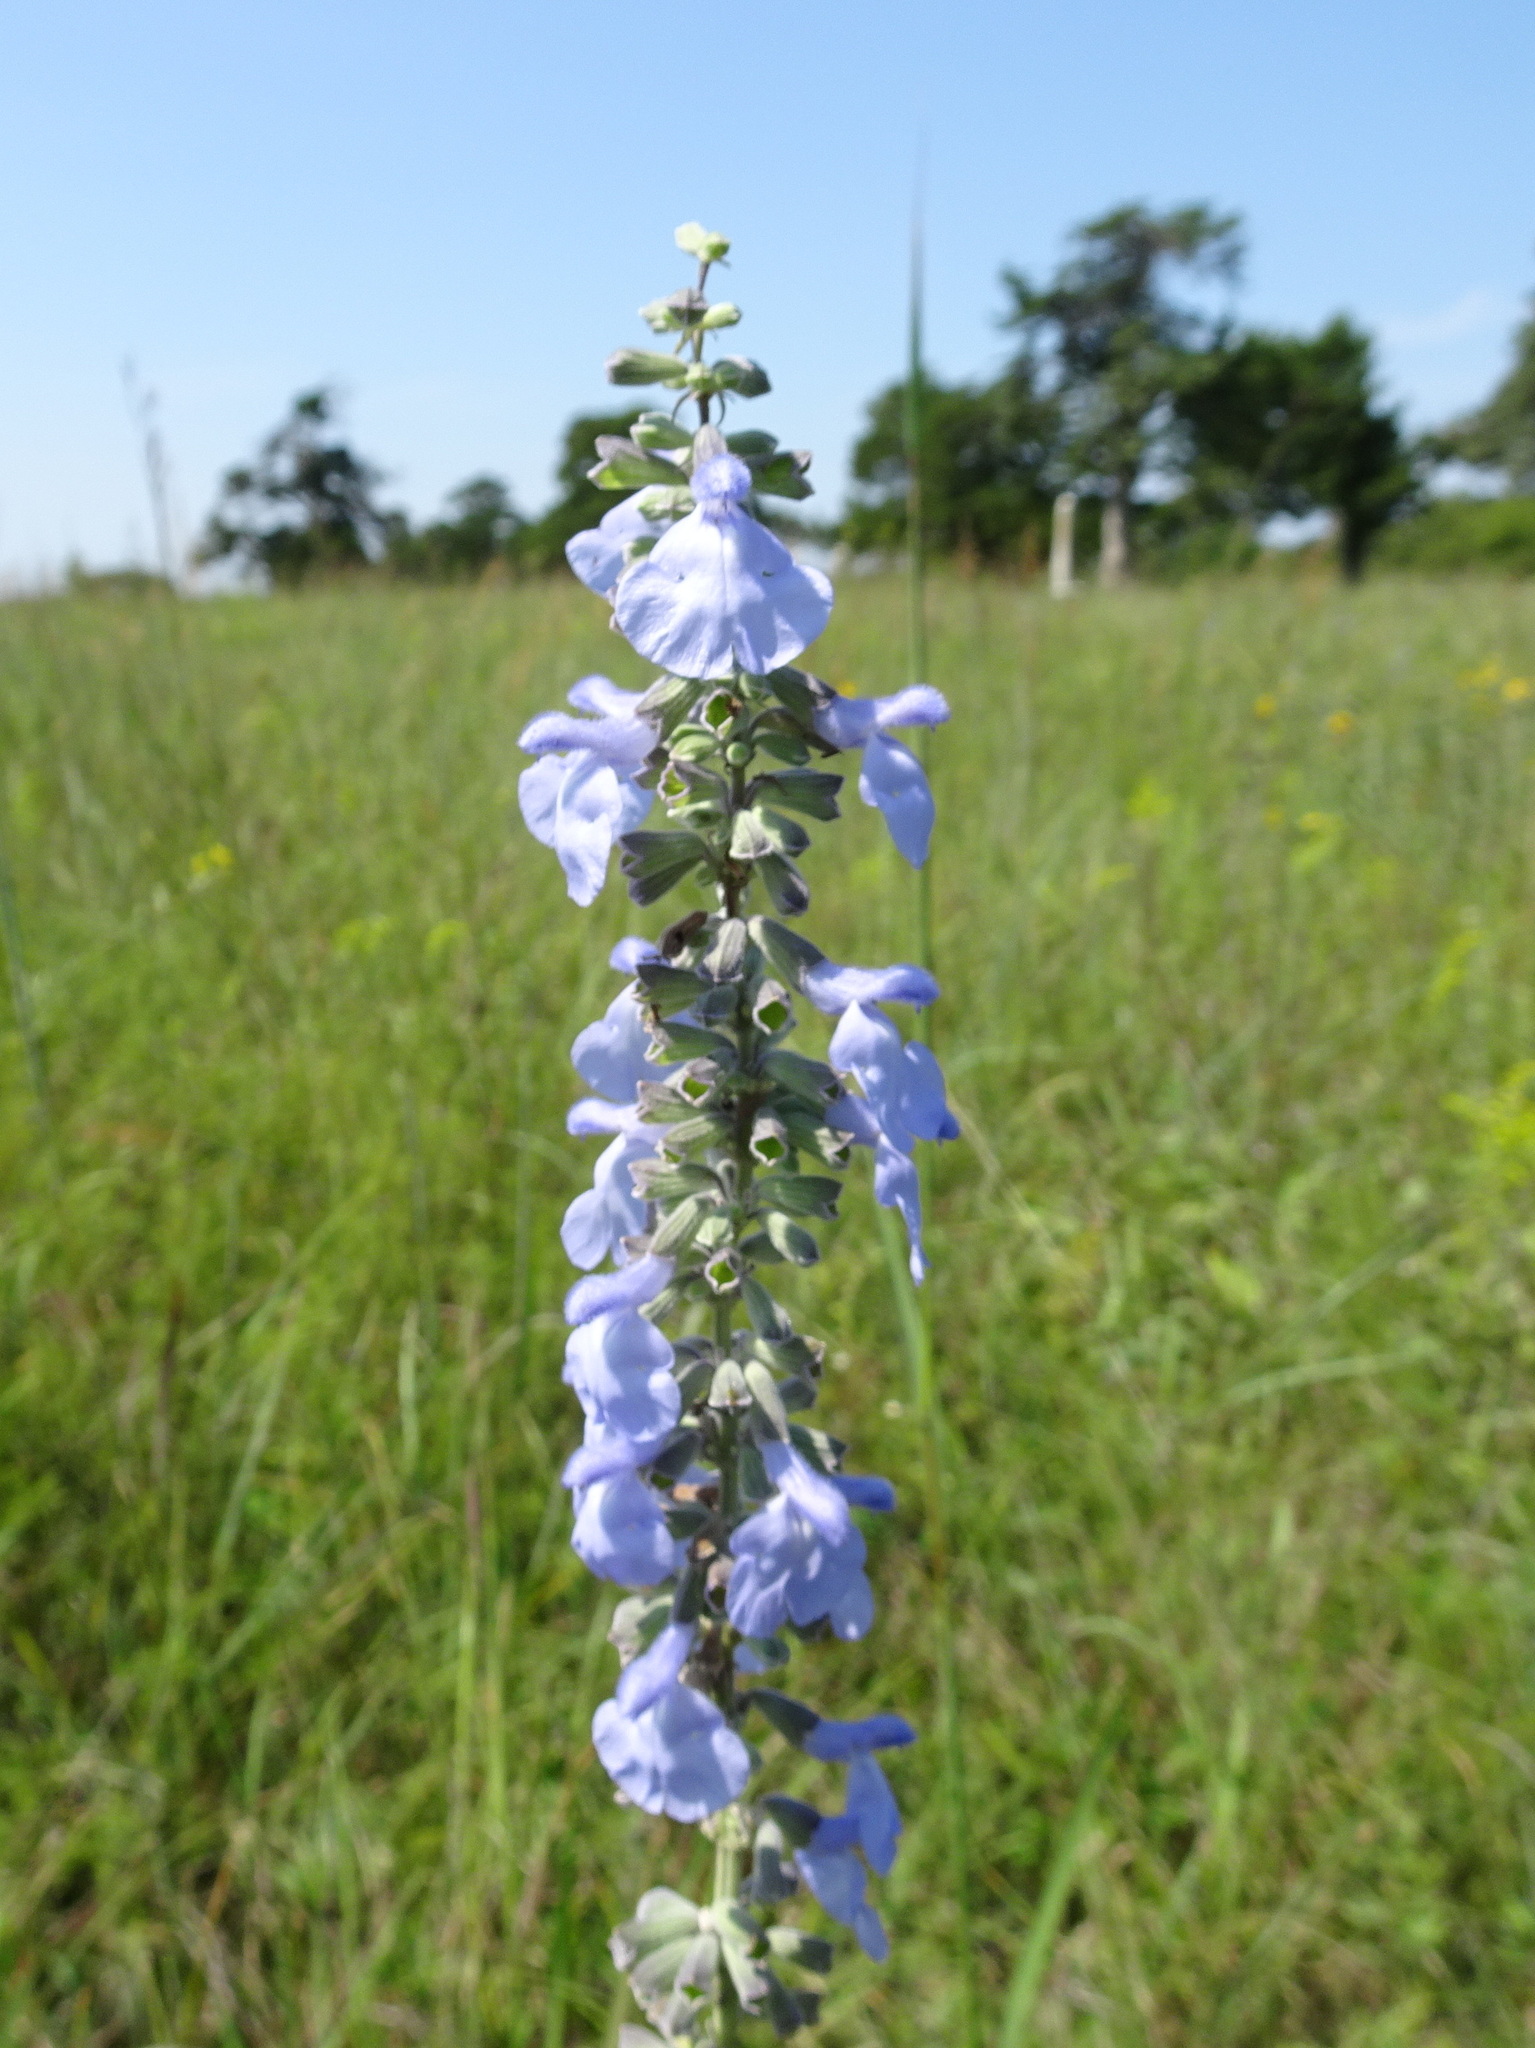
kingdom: Plantae
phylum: Tracheophyta
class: Magnoliopsida
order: Lamiales
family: Lamiaceae
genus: Salvia
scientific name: Salvia azurea
